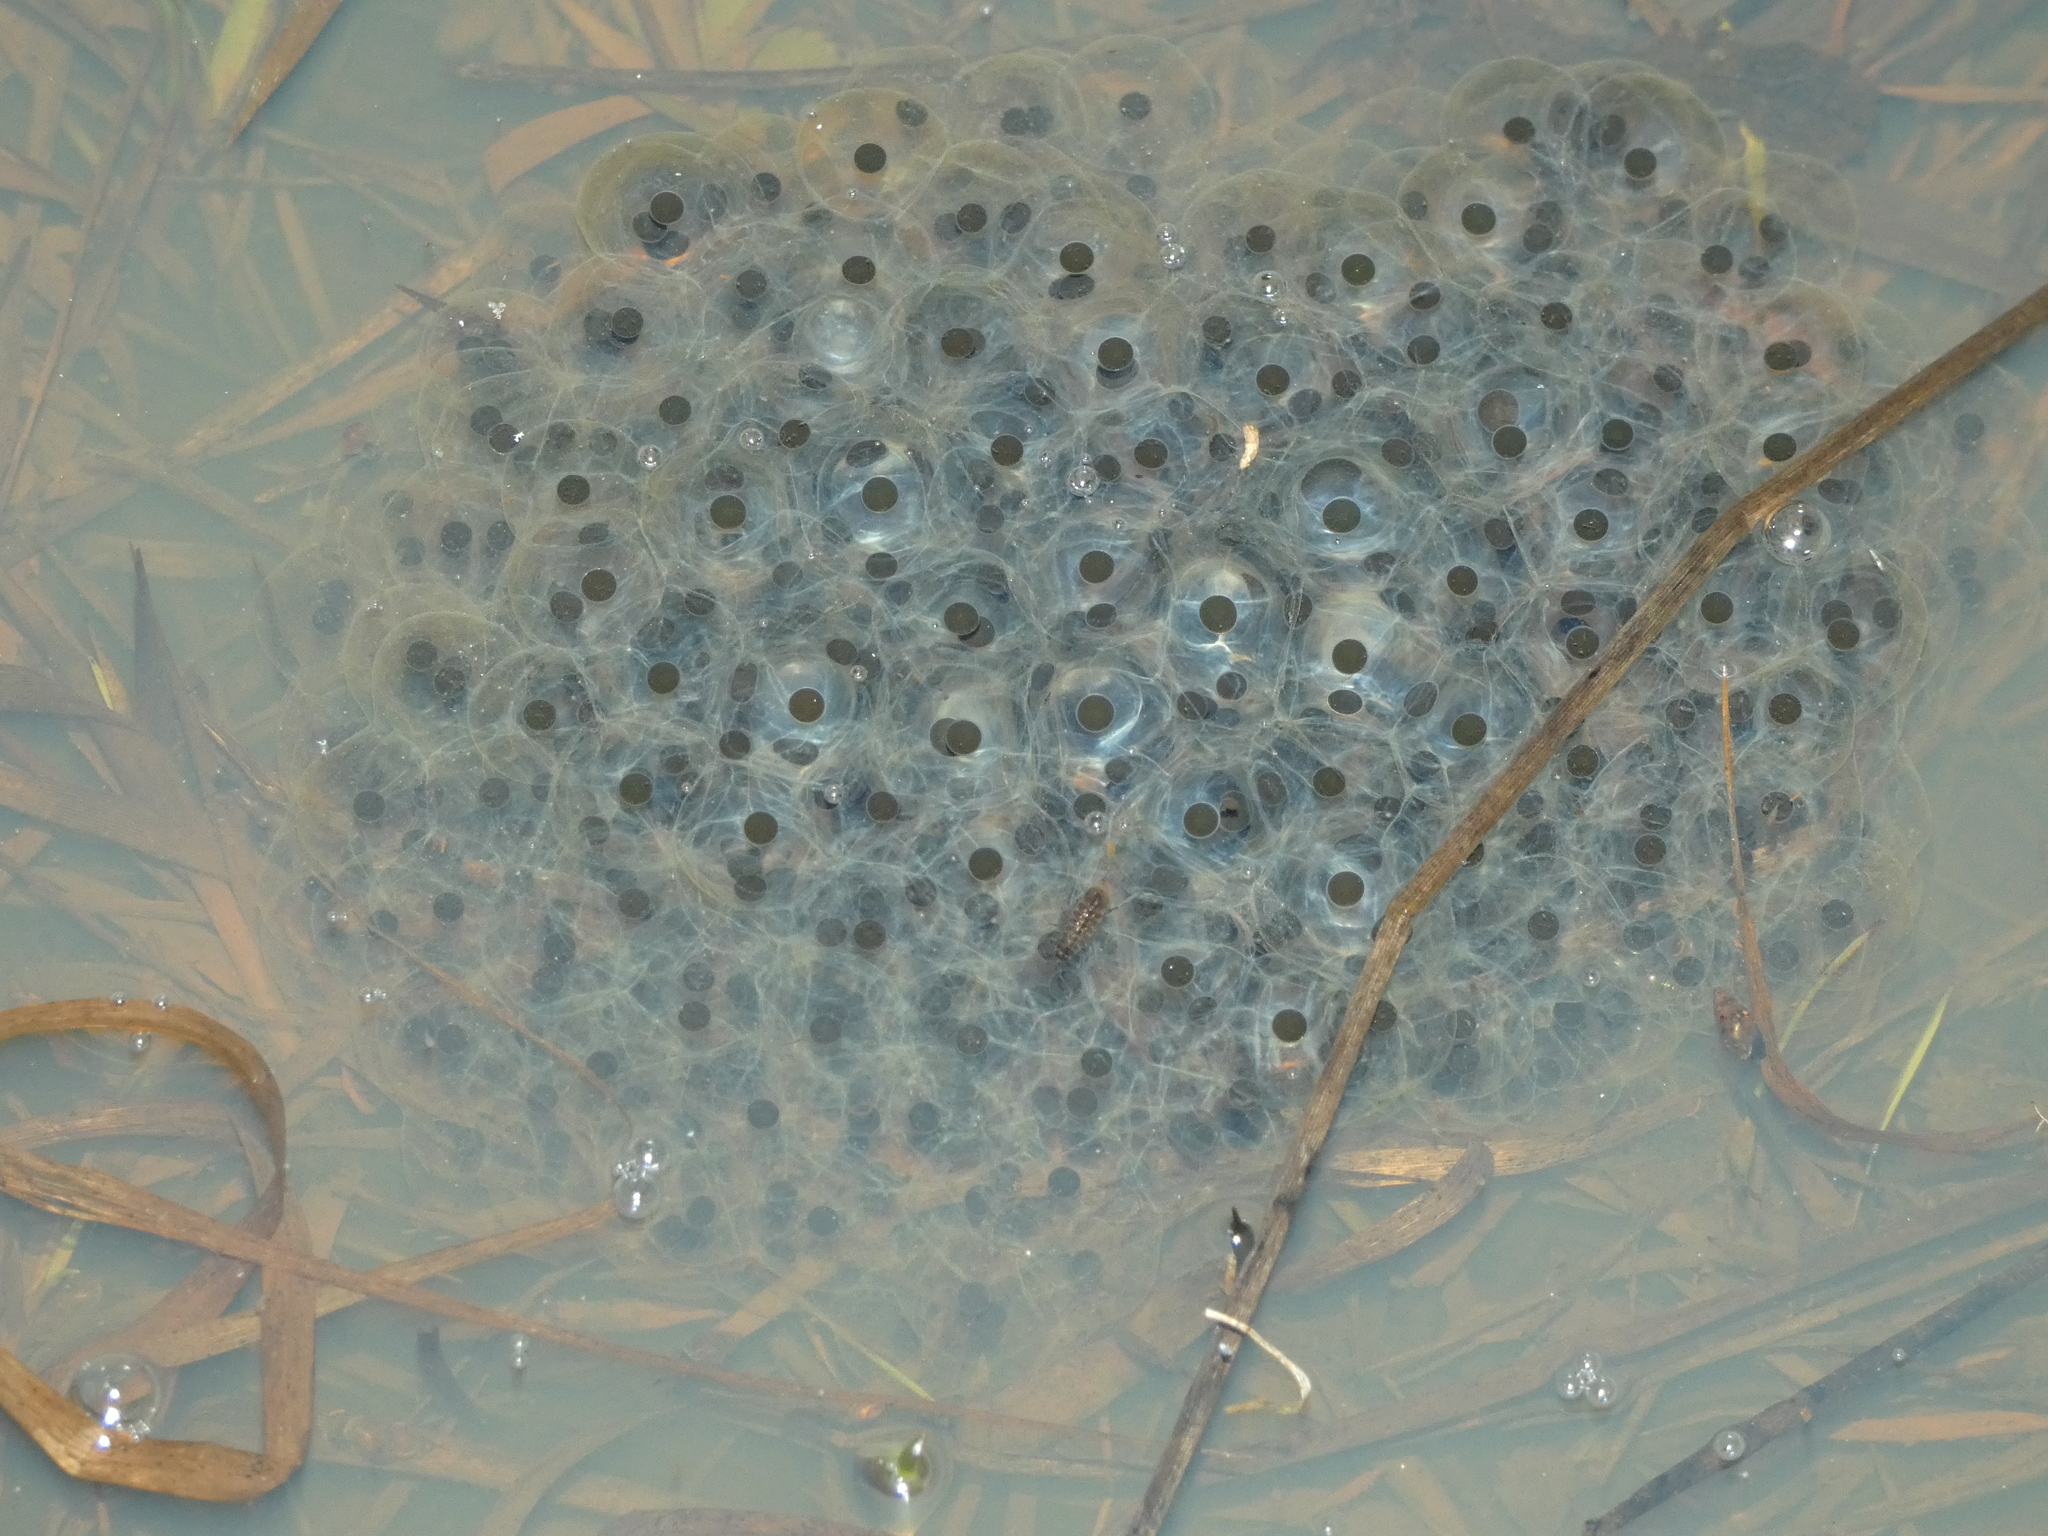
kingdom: Animalia
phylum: Chordata
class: Amphibia
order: Anura
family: Ranidae
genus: Rana
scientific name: Rana dalmatina
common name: Agile frog
